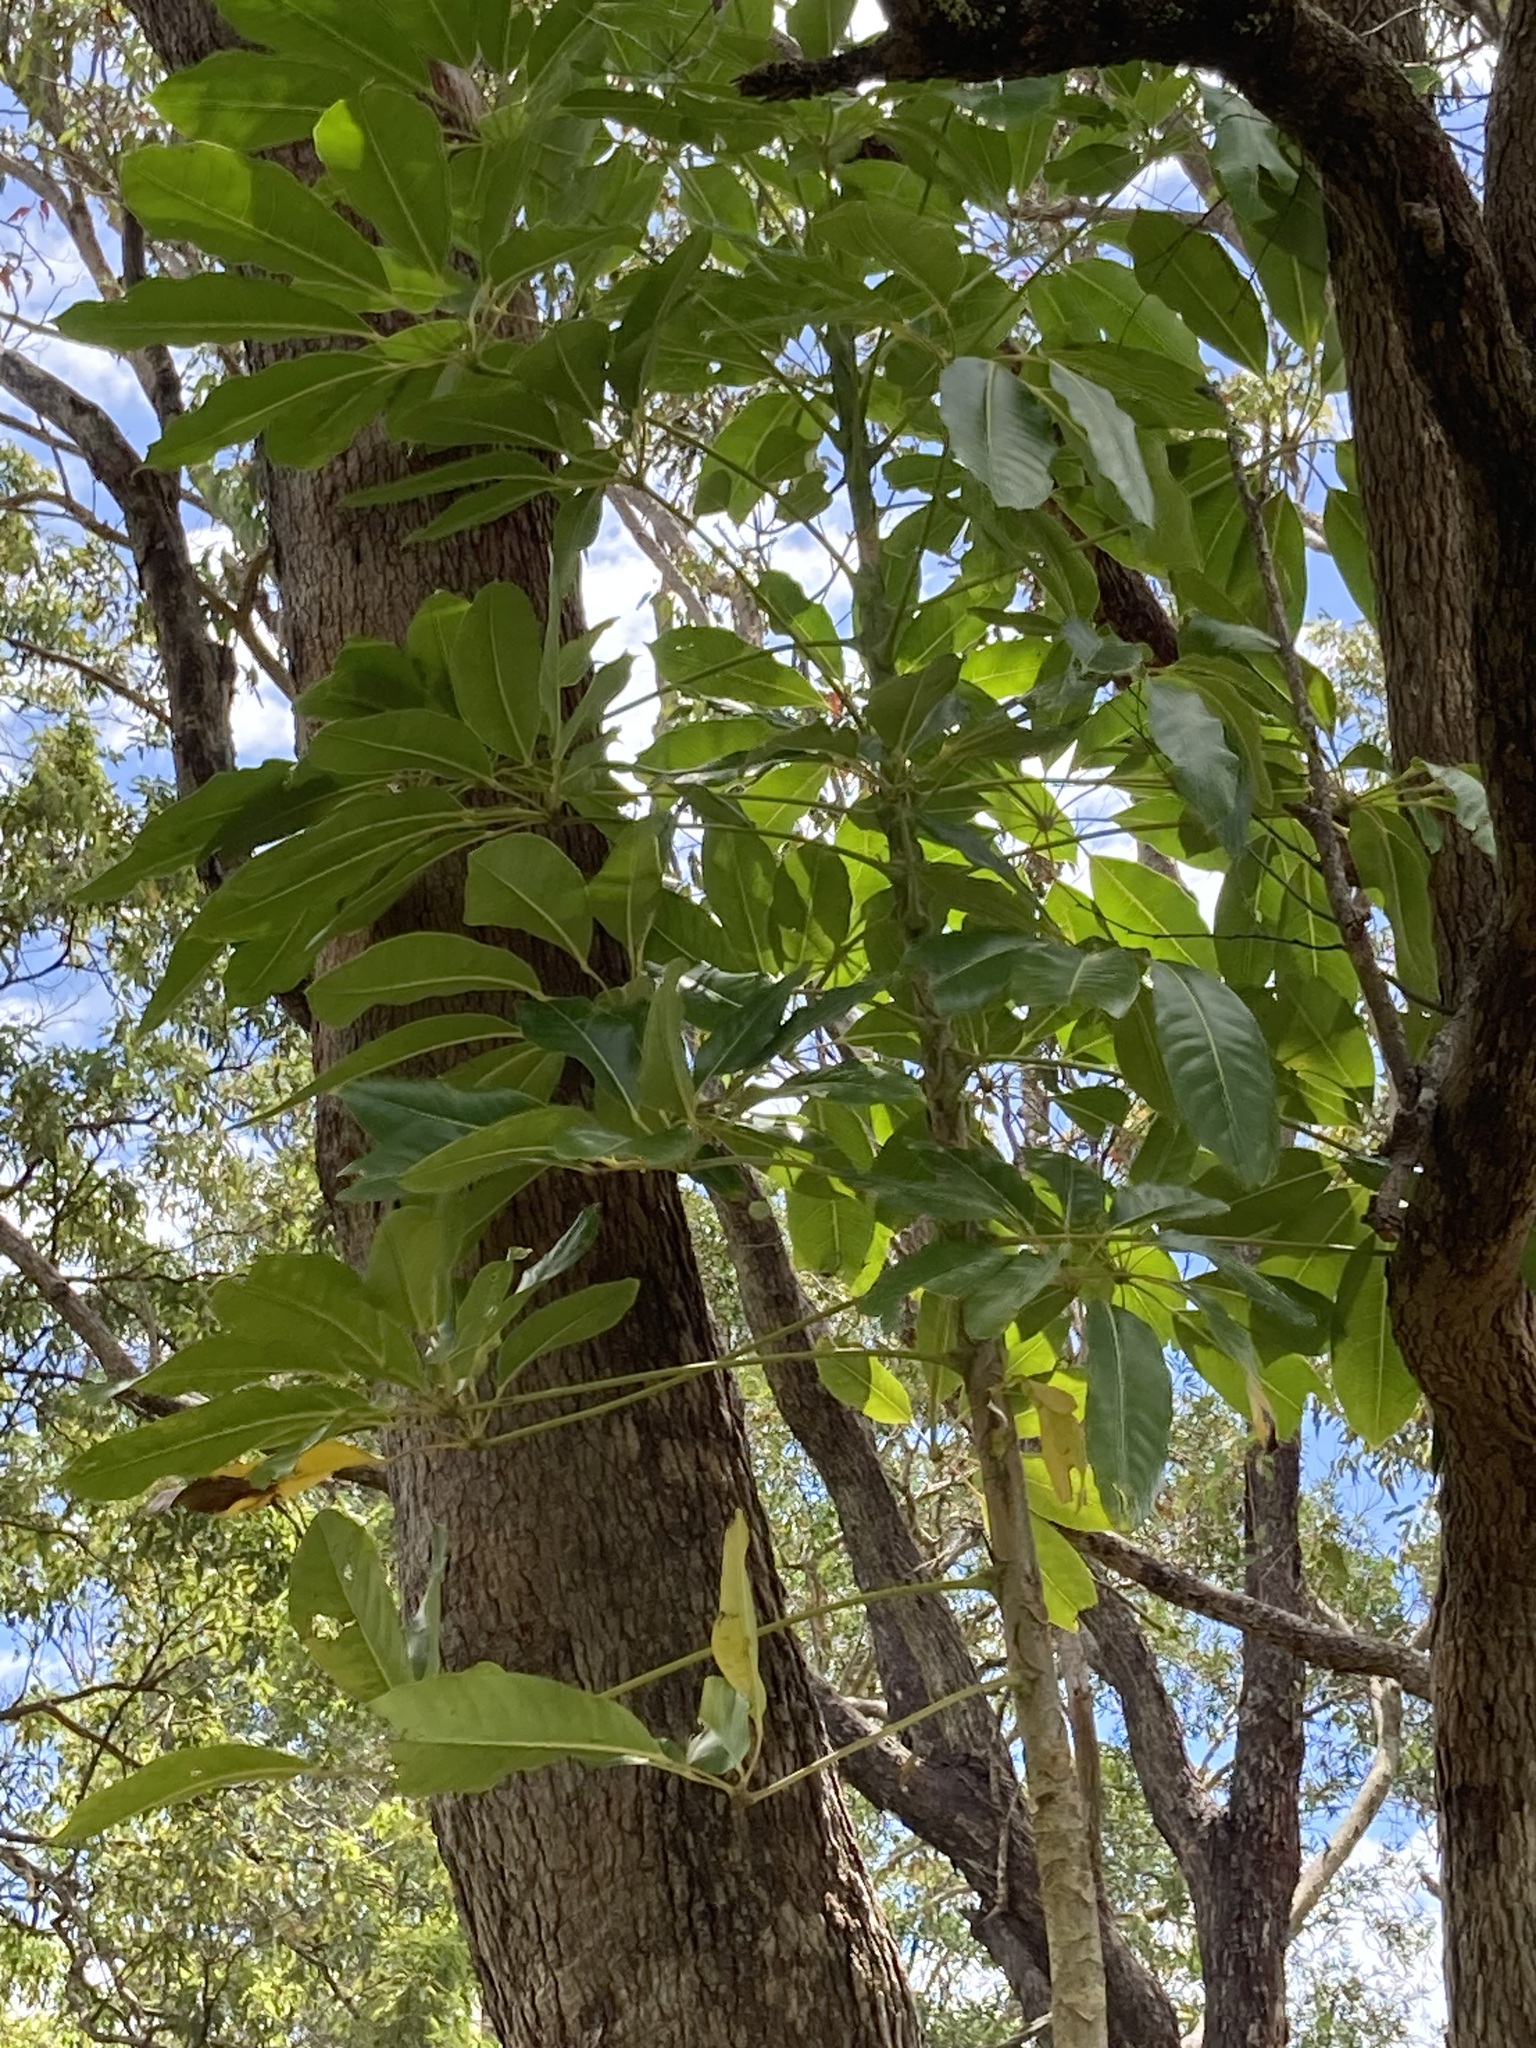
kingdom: Plantae
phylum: Tracheophyta
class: Magnoliopsida
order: Apiales
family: Araliaceae
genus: Heptapleurum
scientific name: Heptapleurum actinophyllum
